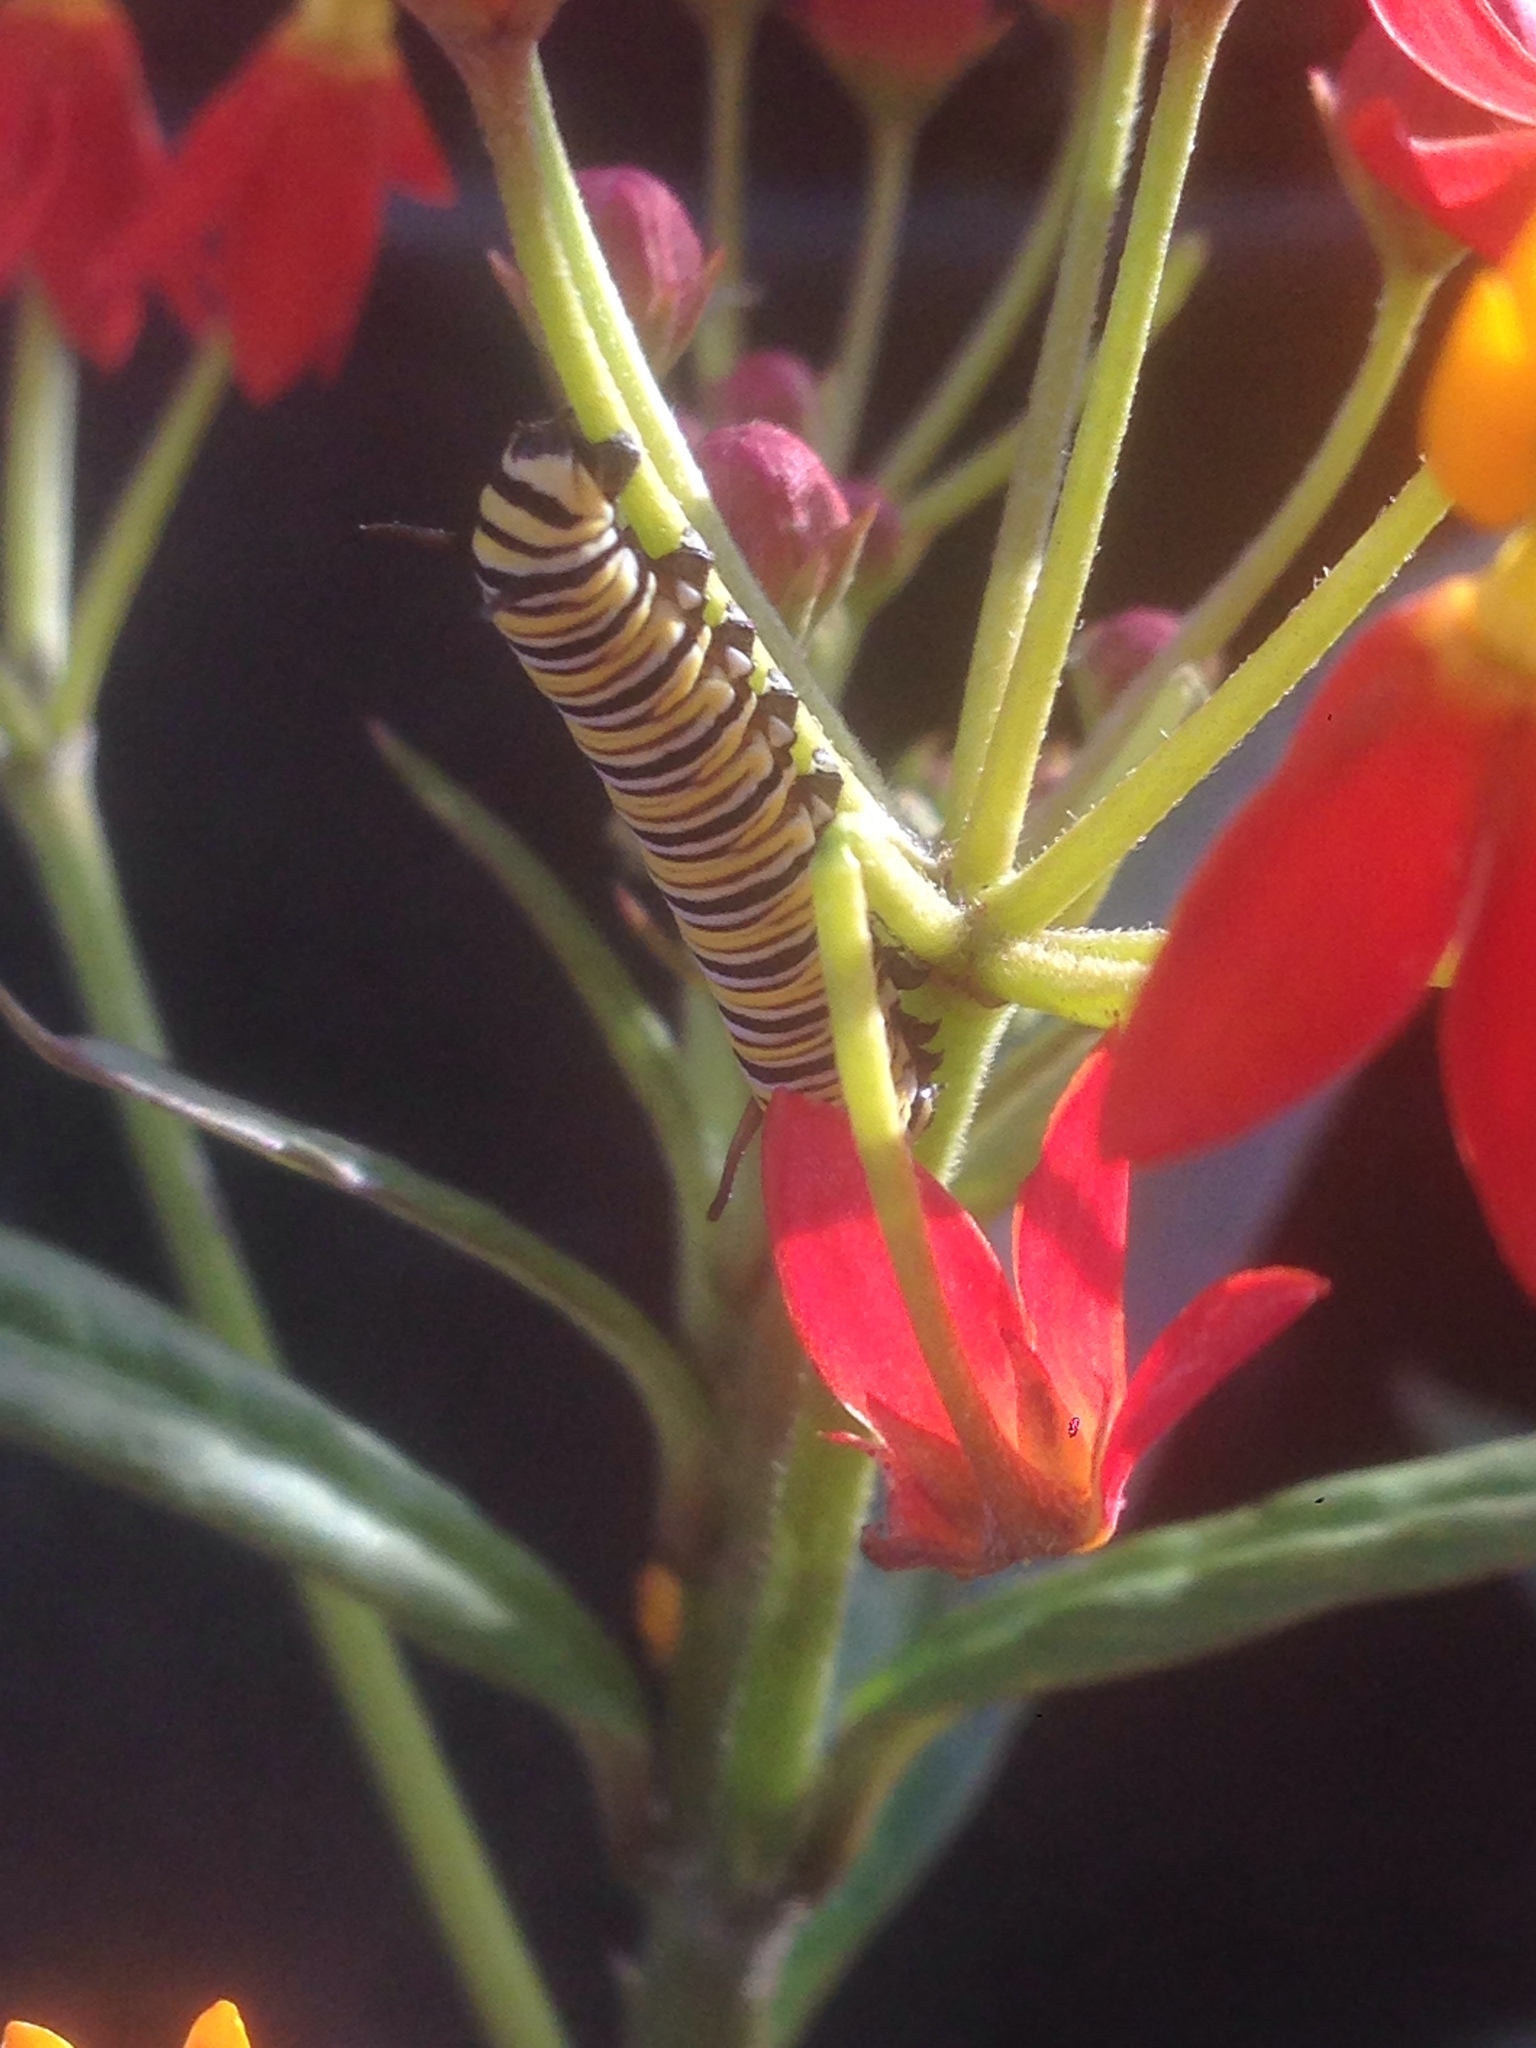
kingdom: Animalia
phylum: Arthropoda
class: Insecta
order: Lepidoptera
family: Nymphalidae
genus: Danaus
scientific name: Danaus plexippus
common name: Monarch
